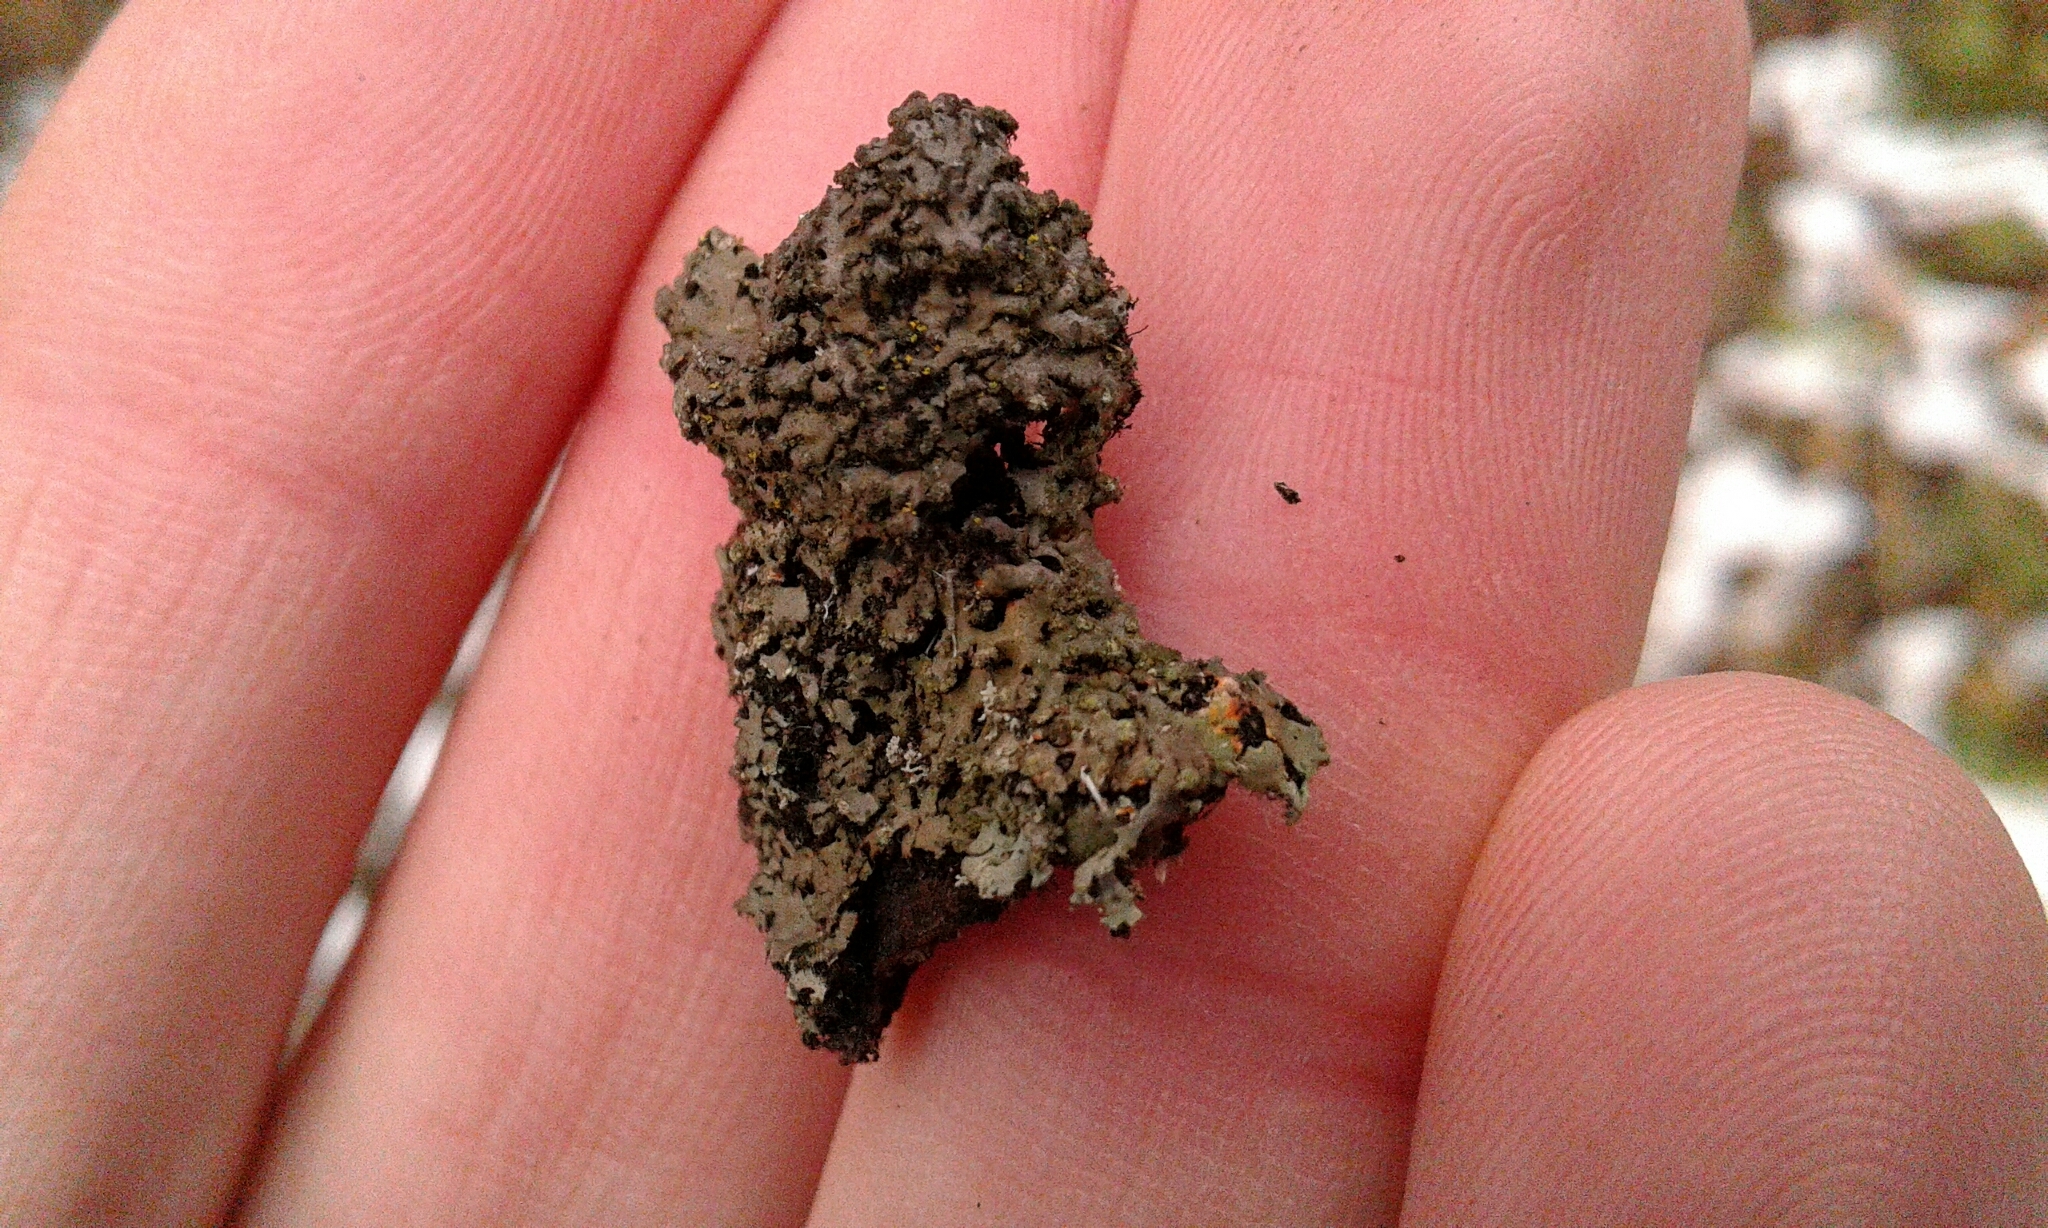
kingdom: Fungi
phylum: Ascomycota
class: Lecanoromycetes
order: Caliciales
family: Physciaceae
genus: Phaeophyscia
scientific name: Phaeophyscia rubropulchra
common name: Orange-cored shadow lichen
